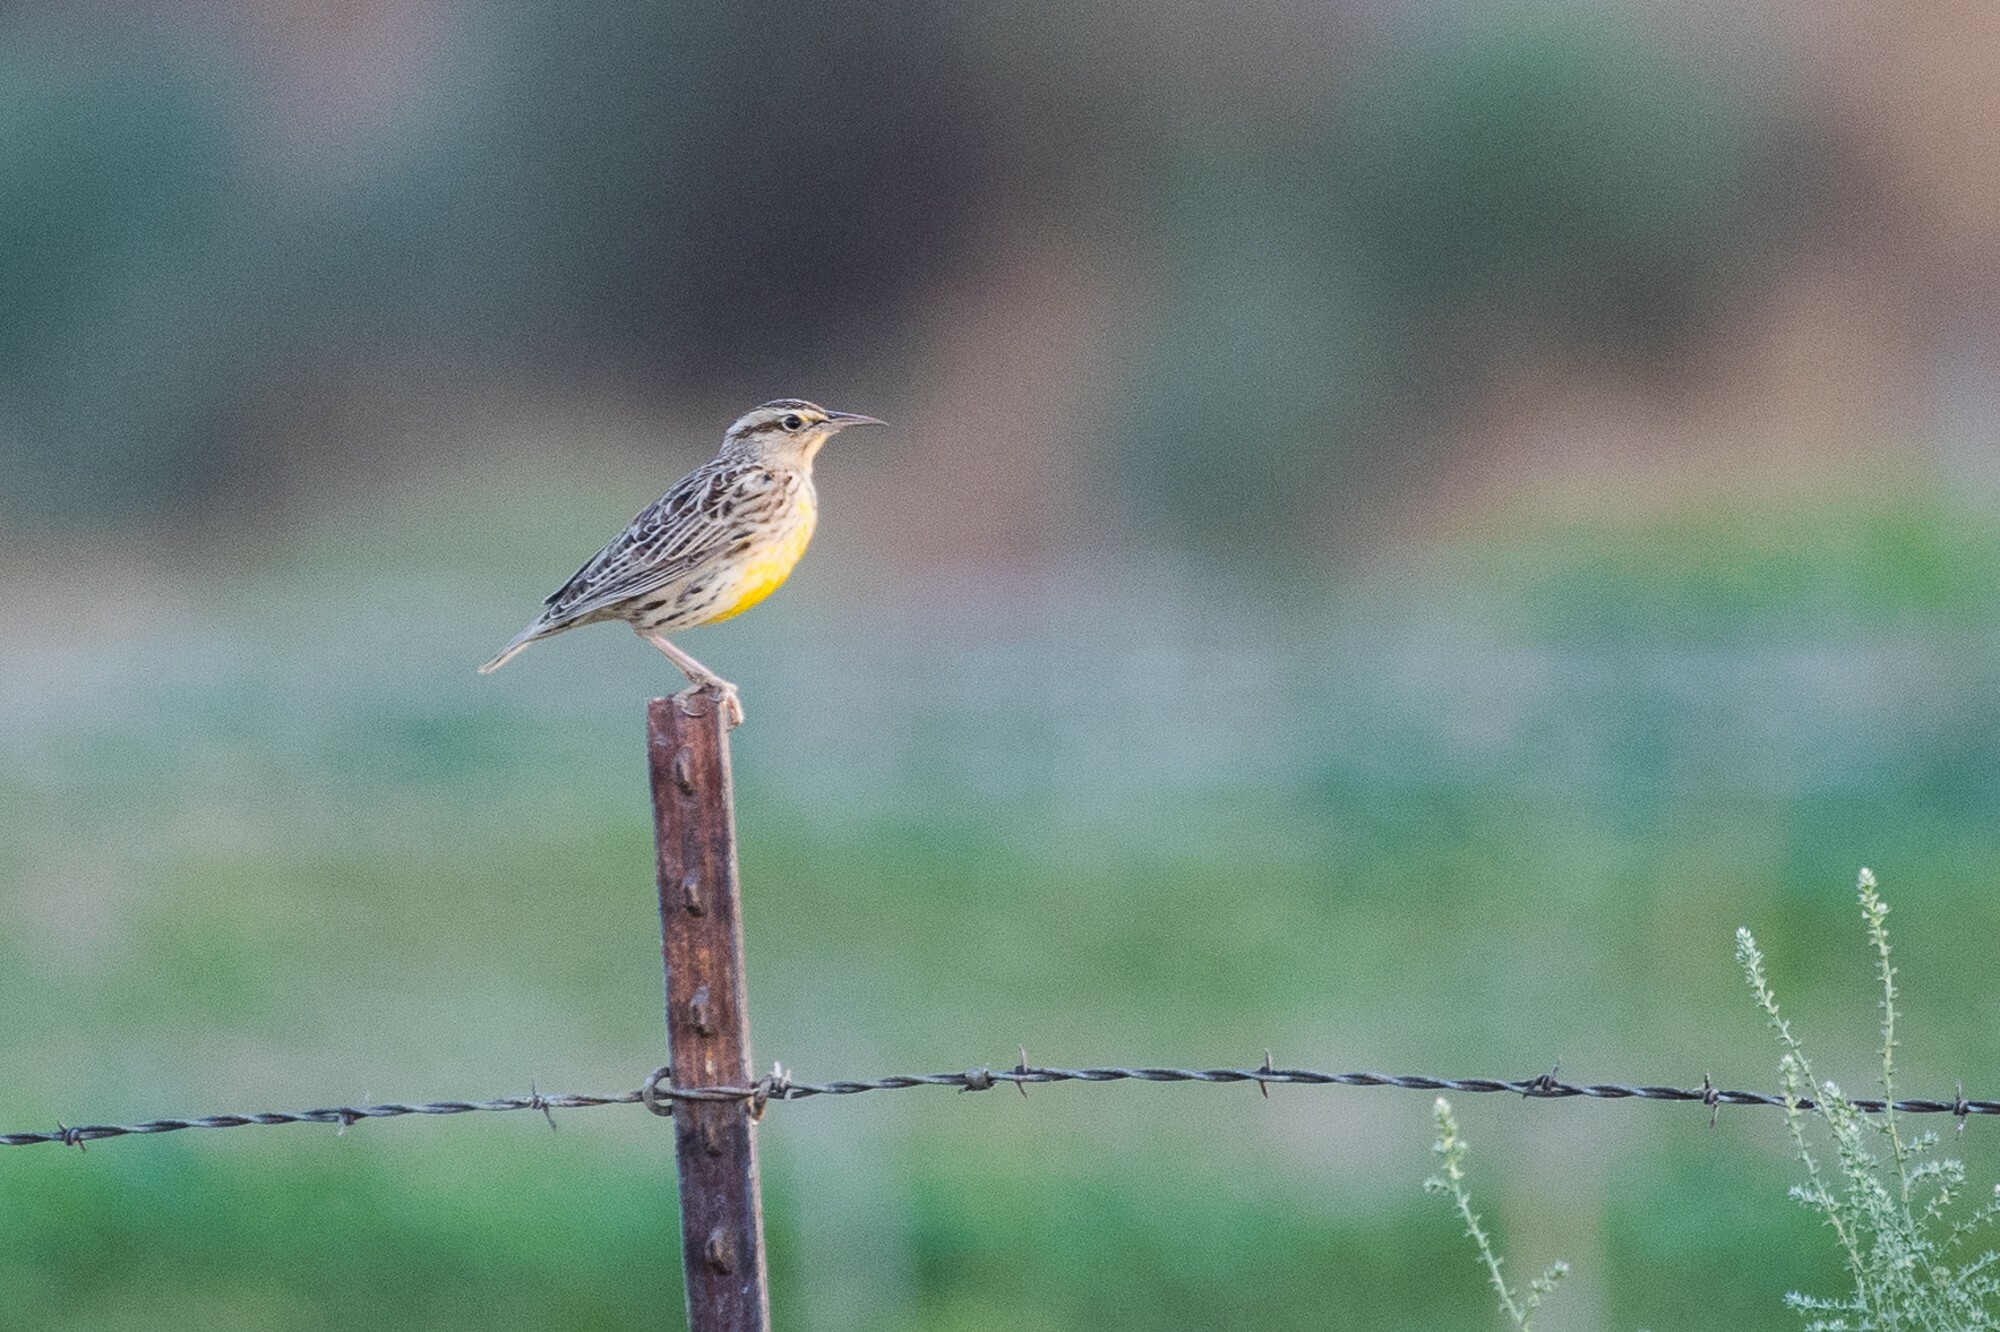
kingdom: Animalia
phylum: Chordata
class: Aves
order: Passeriformes
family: Icteridae
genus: Sturnella
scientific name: Sturnella neglecta
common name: Western meadowlark
